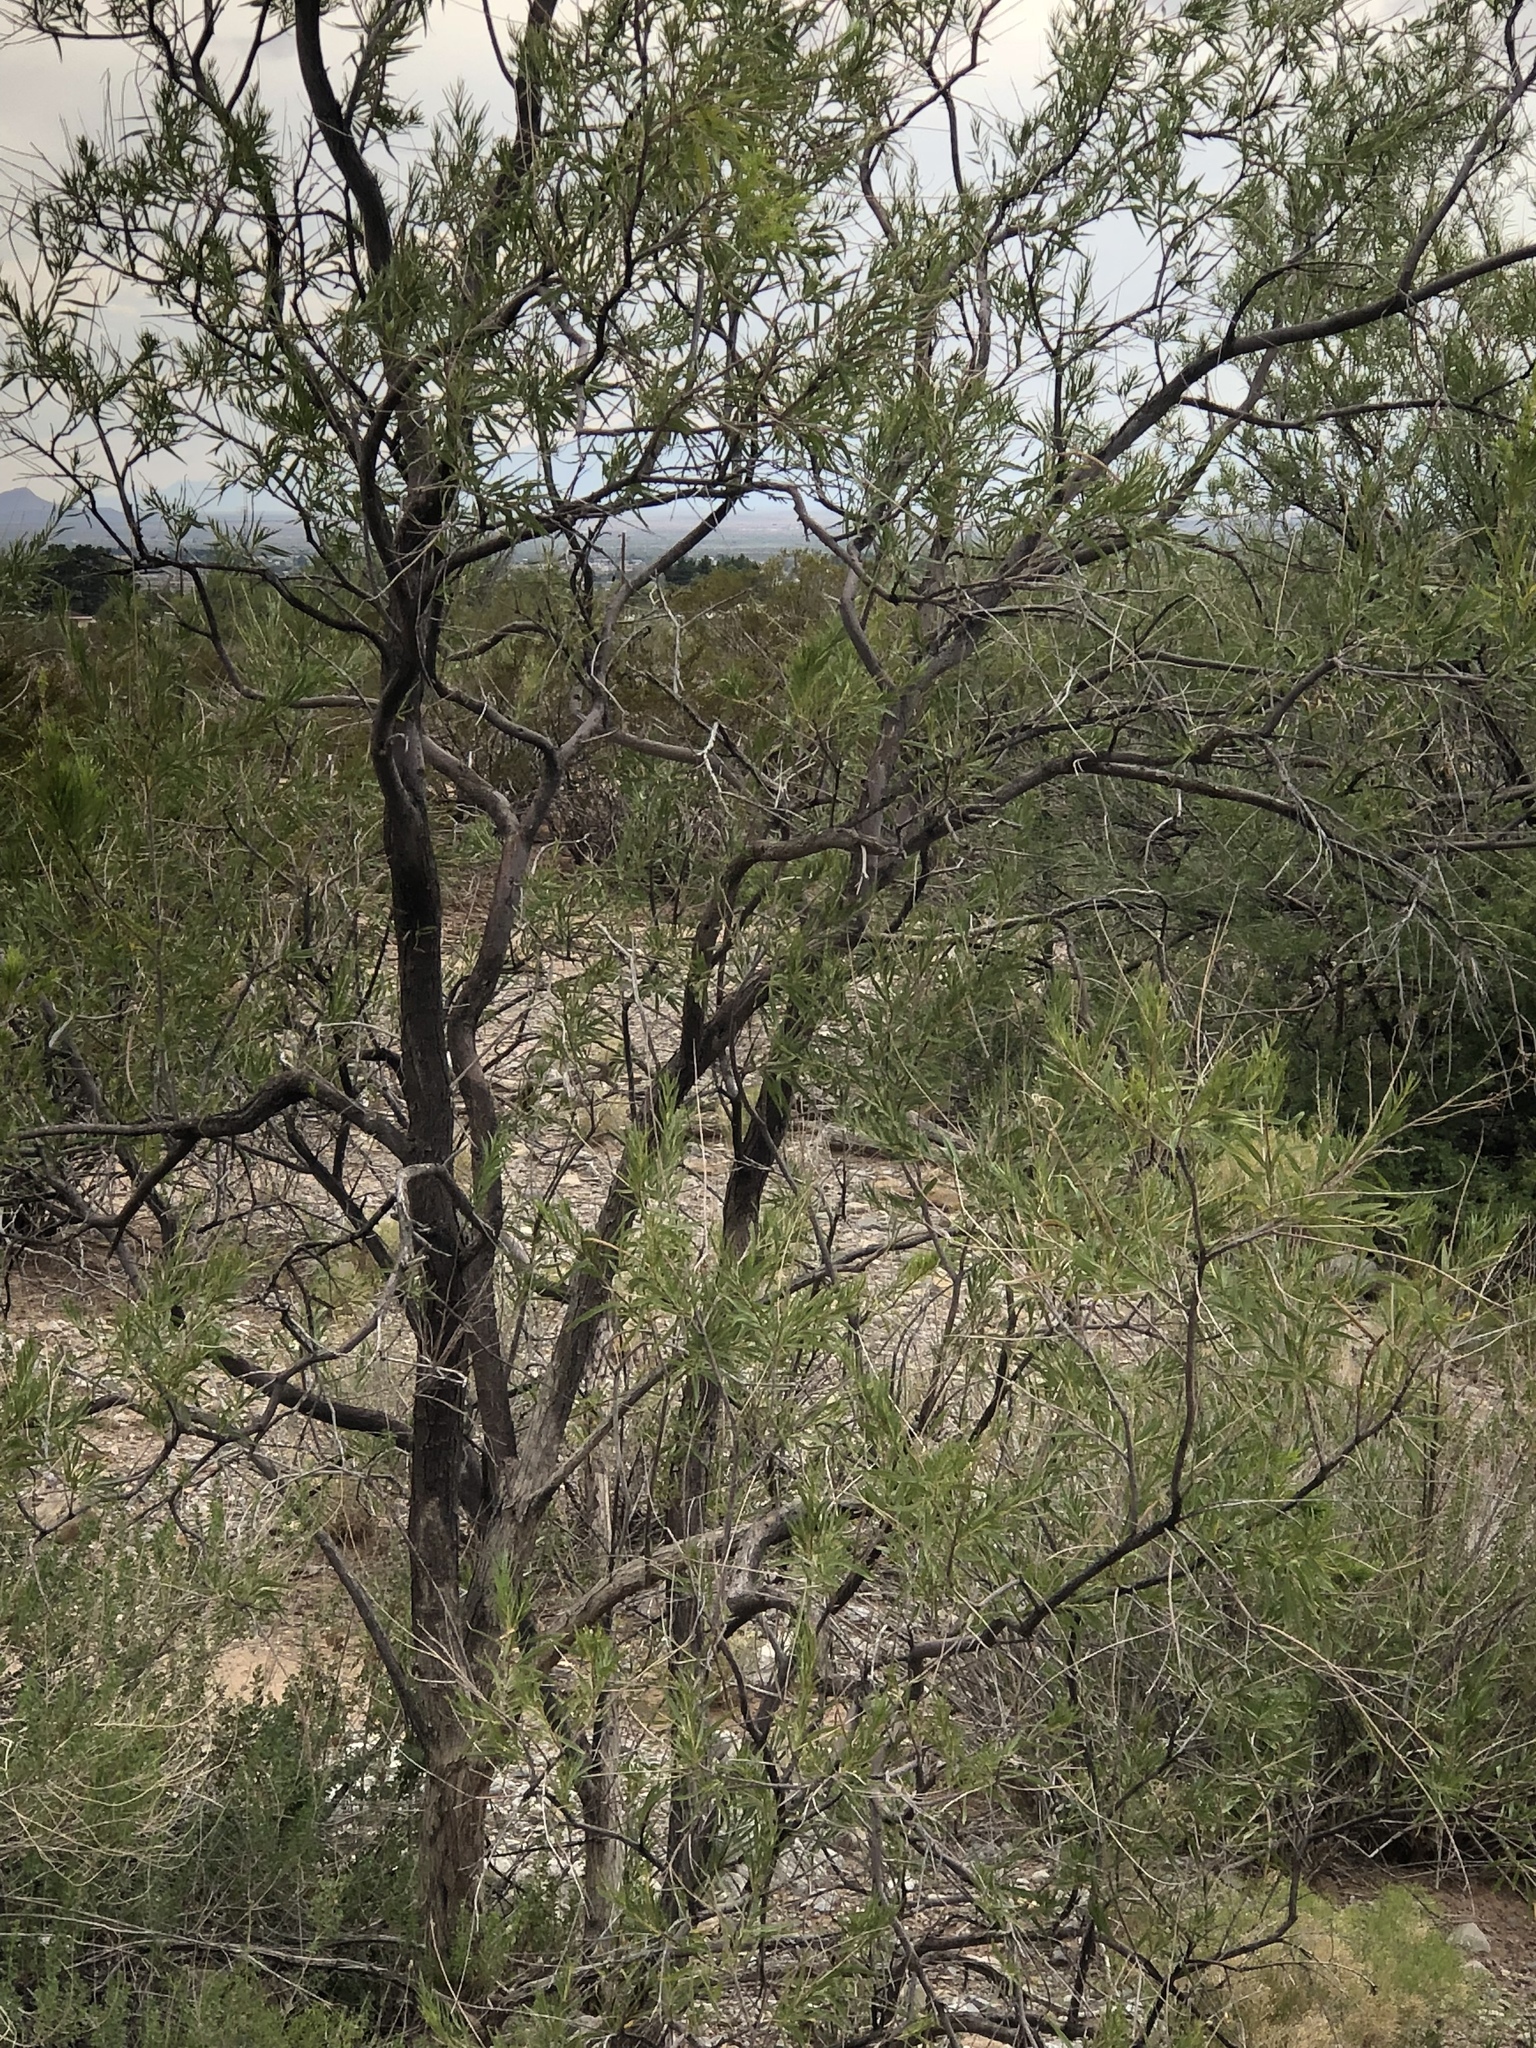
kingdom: Plantae
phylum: Tracheophyta
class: Magnoliopsida
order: Lamiales
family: Bignoniaceae
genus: Chilopsis
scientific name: Chilopsis linearis
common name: Desert-willow
